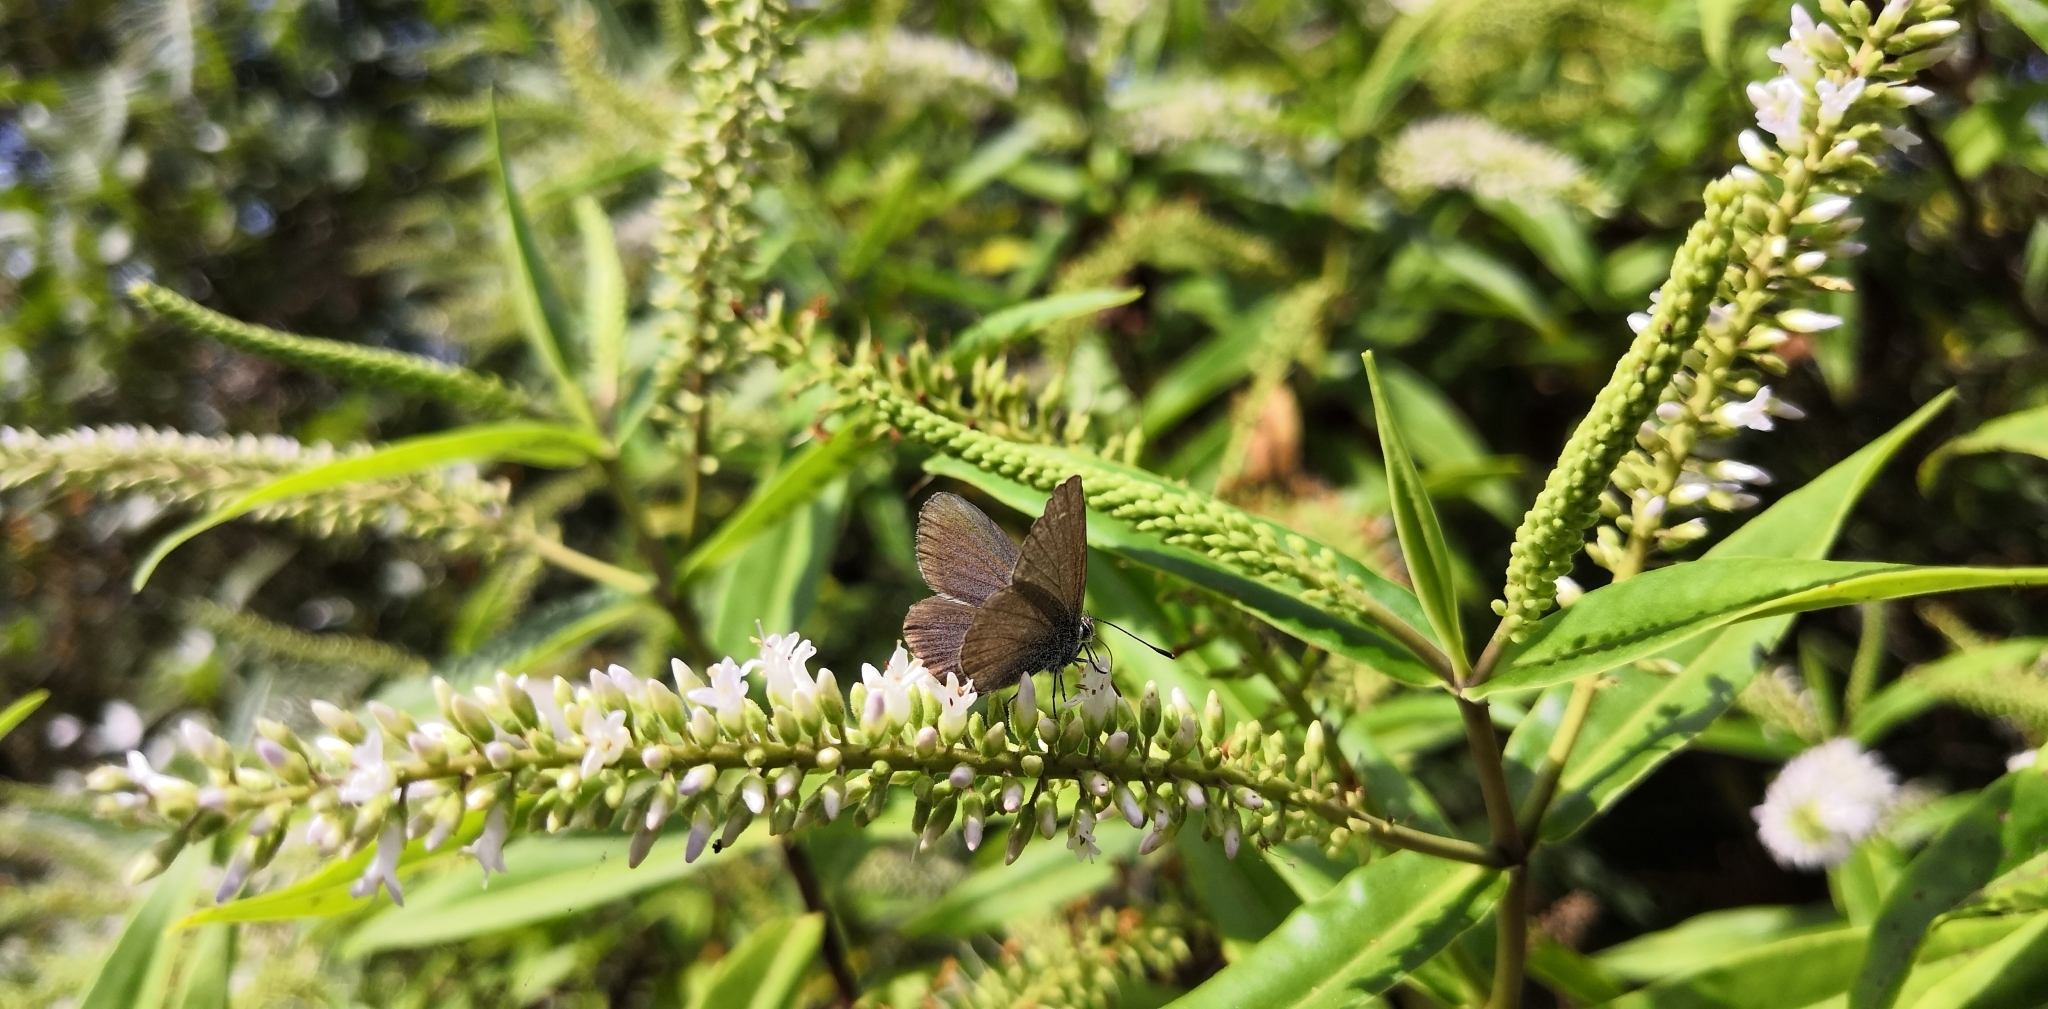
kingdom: Animalia
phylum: Arthropoda
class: Insecta
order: Lepidoptera
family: Lycaenidae
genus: Zizina
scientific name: Zizina labradus
